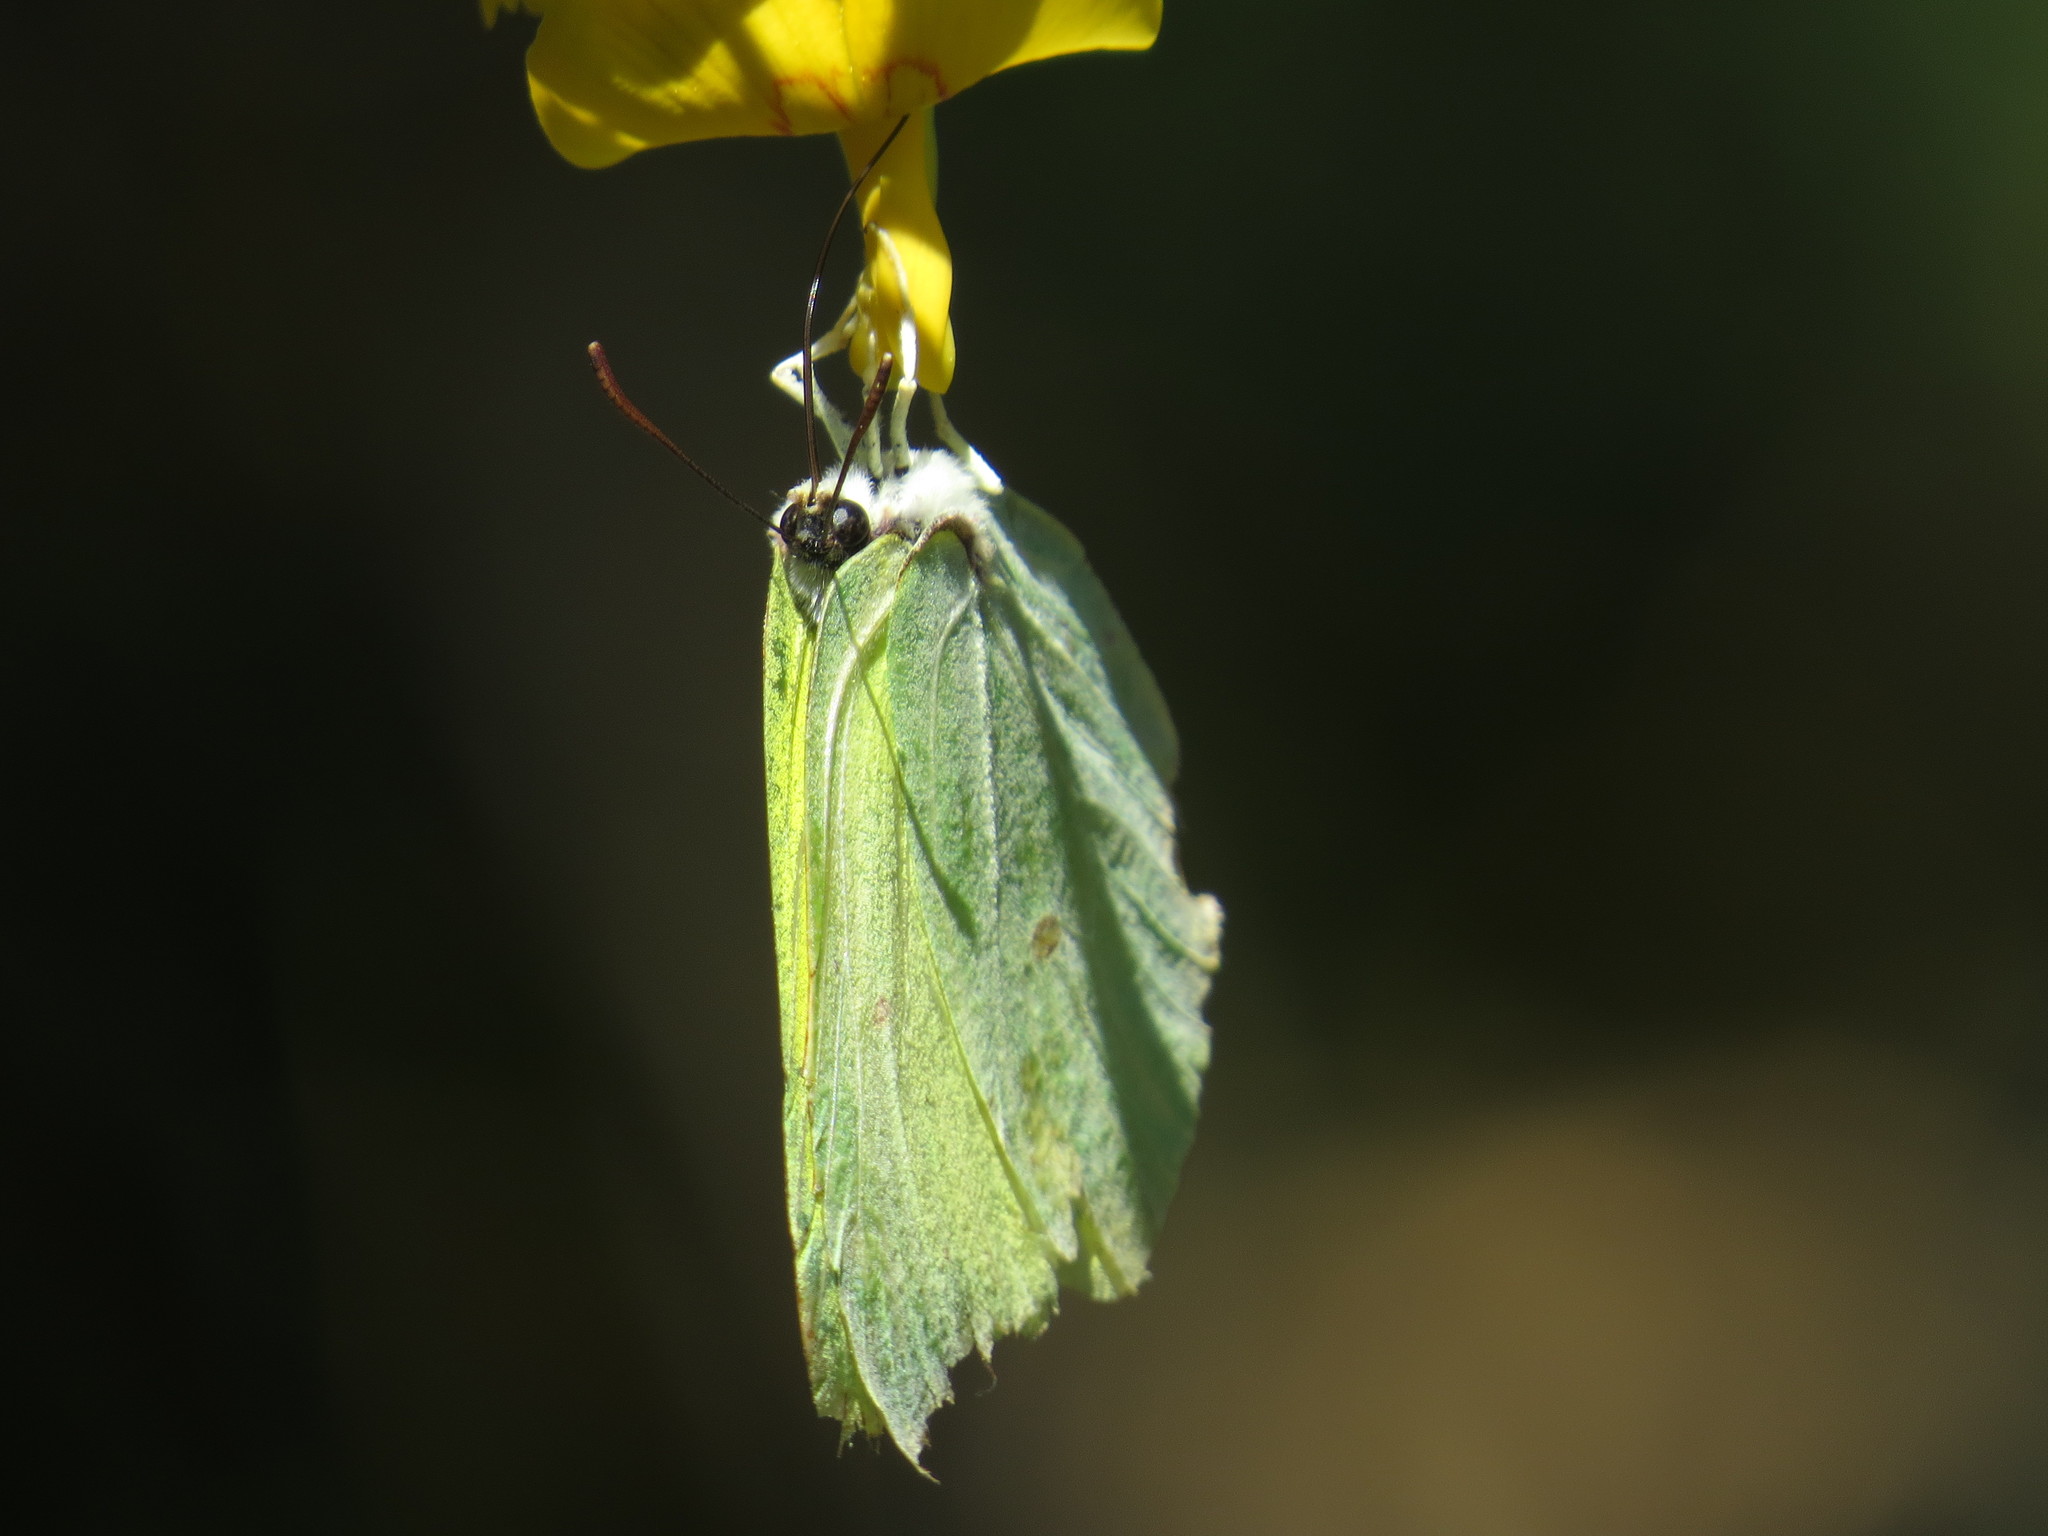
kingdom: Animalia
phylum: Arthropoda
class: Insecta
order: Lepidoptera
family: Pieridae
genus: Gonepteryx
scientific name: Gonepteryx farinosa
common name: Powdered brimstone
